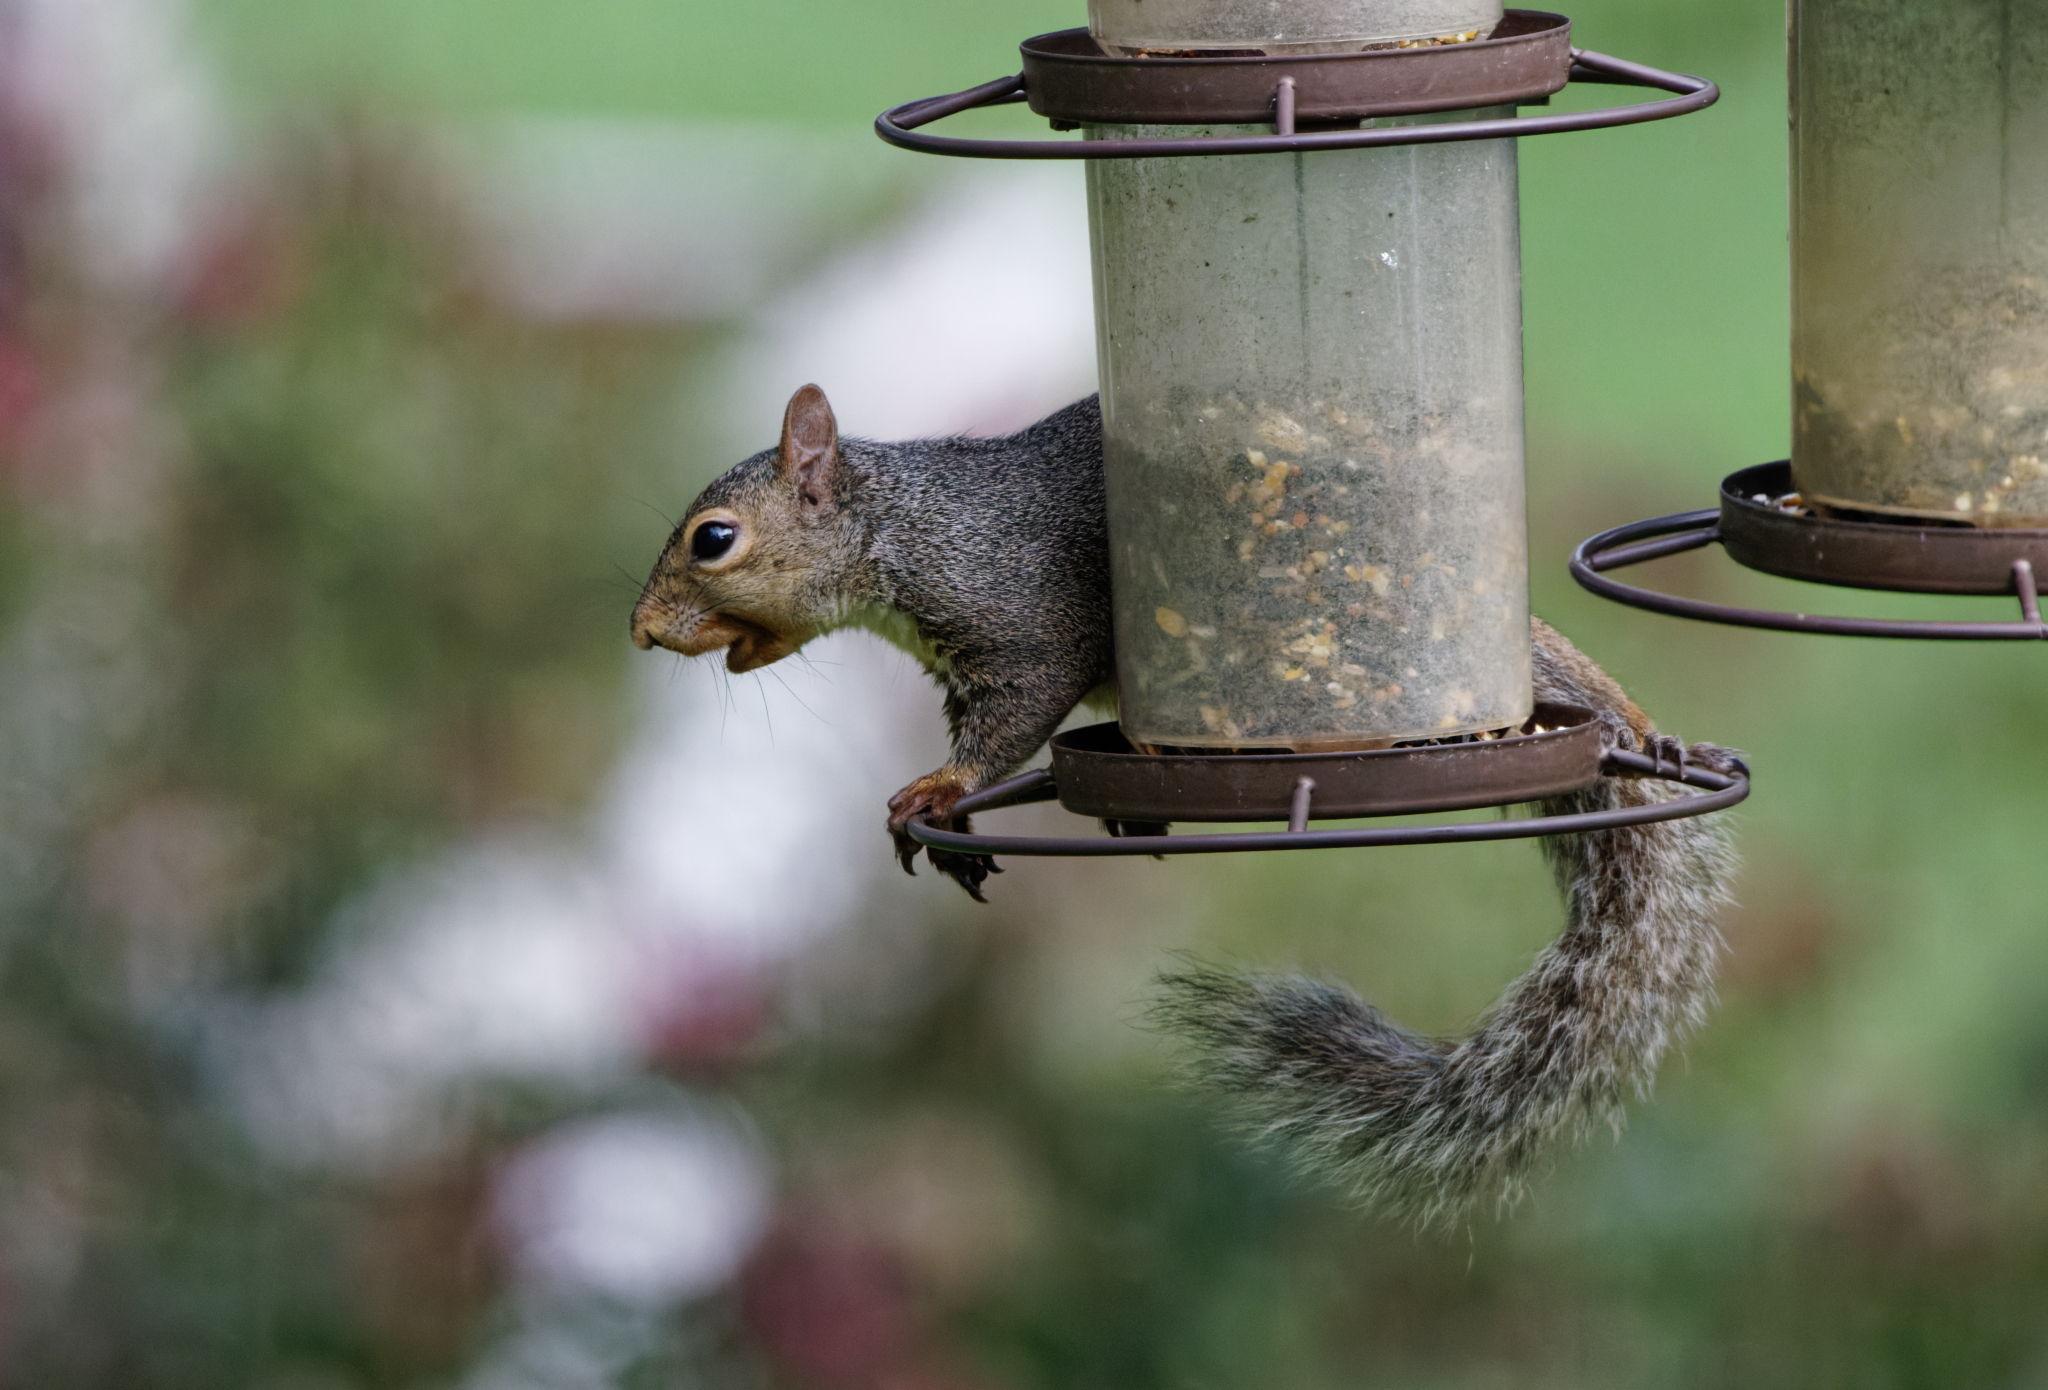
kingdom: Animalia
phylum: Chordata
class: Mammalia
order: Rodentia
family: Sciuridae
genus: Sciurus
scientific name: Sciurus carolinensis
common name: Eastern gray squirrel
